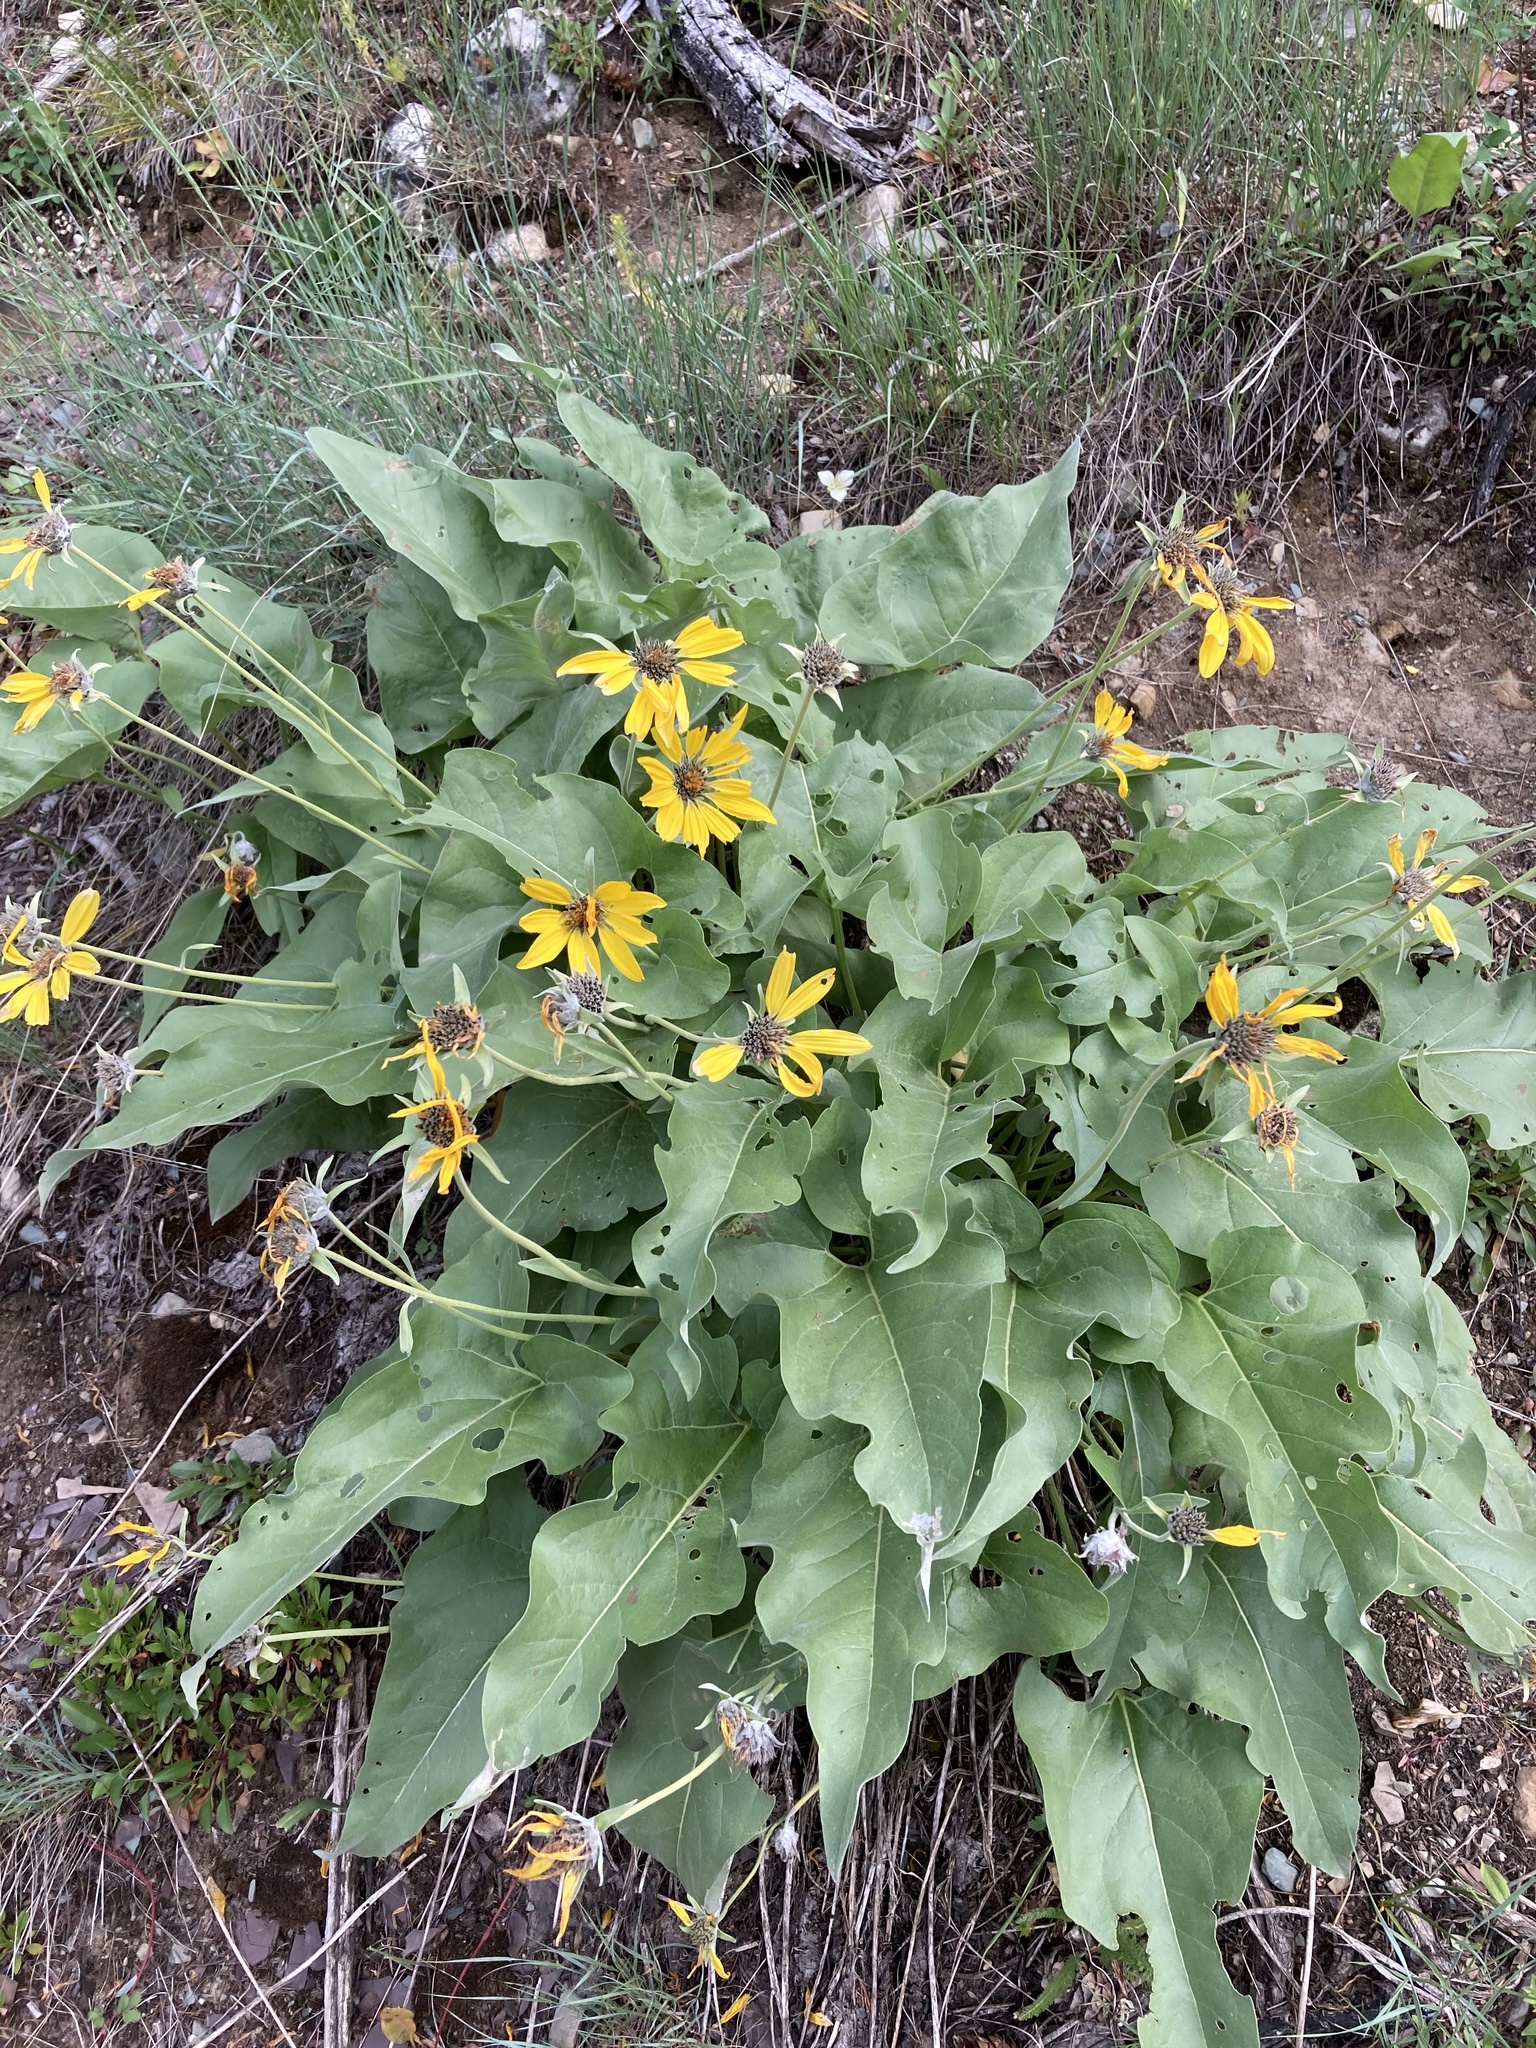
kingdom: Plantae
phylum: Tracheophyta
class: Magnoliopsida
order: Asterales
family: Asteraceae
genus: Wyethia
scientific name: Wyethia sagittata
